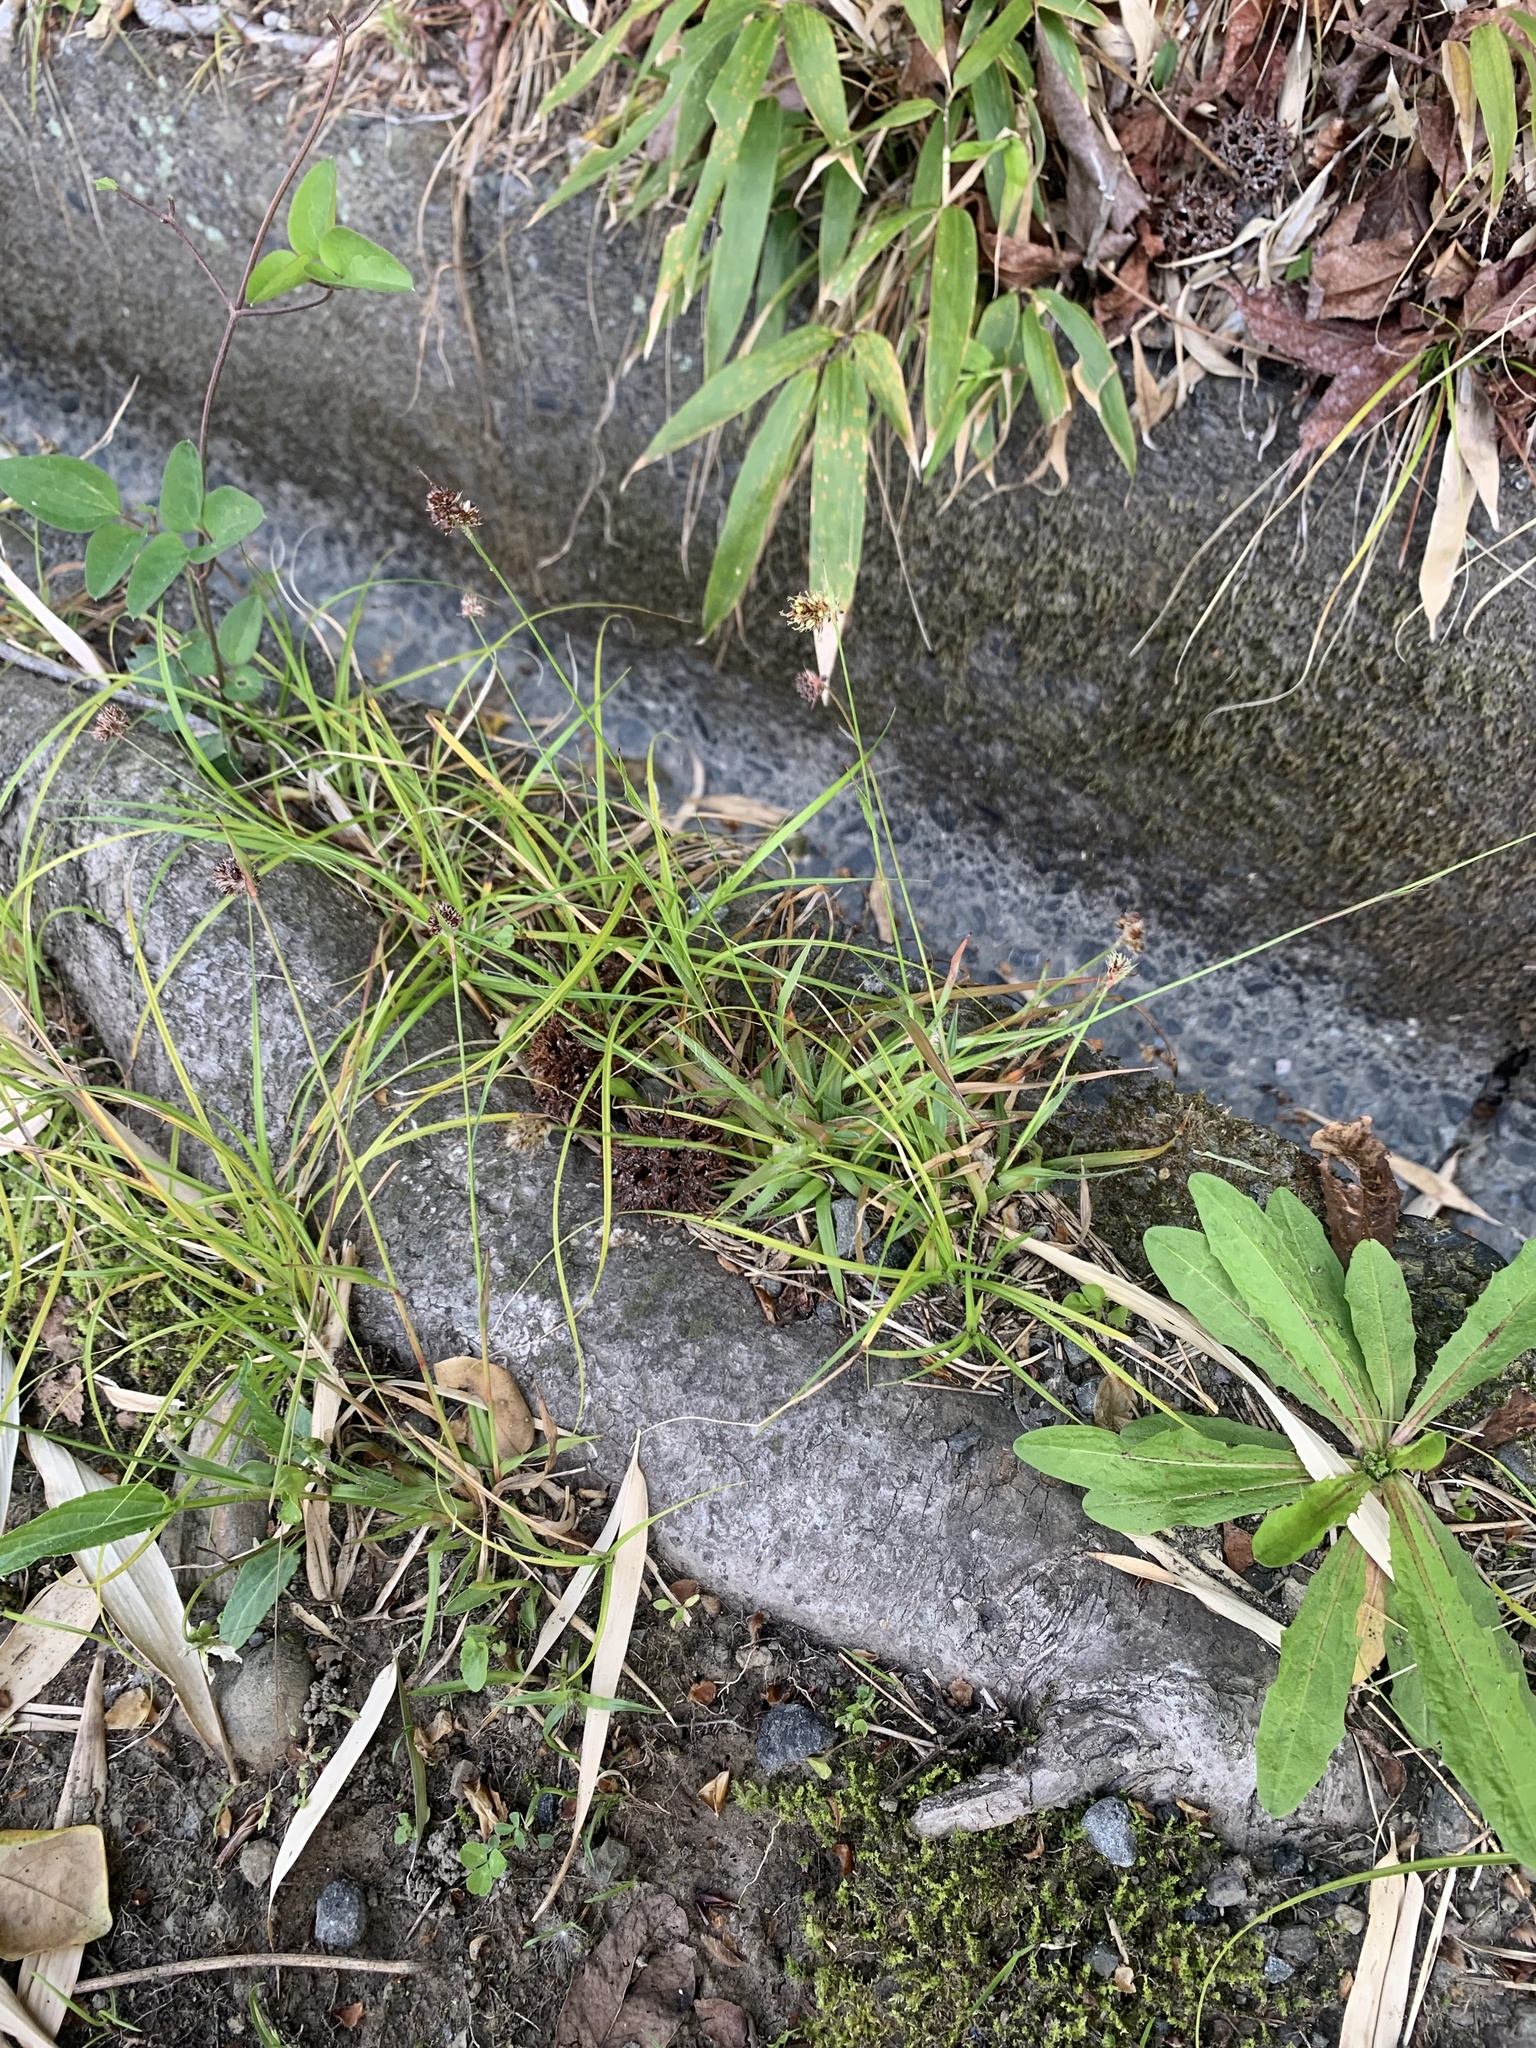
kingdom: Plantae
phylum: Tracheophyta
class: Liliopsida
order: Poales
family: Juncaceae
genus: Luzula
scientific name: Luzula capitata
